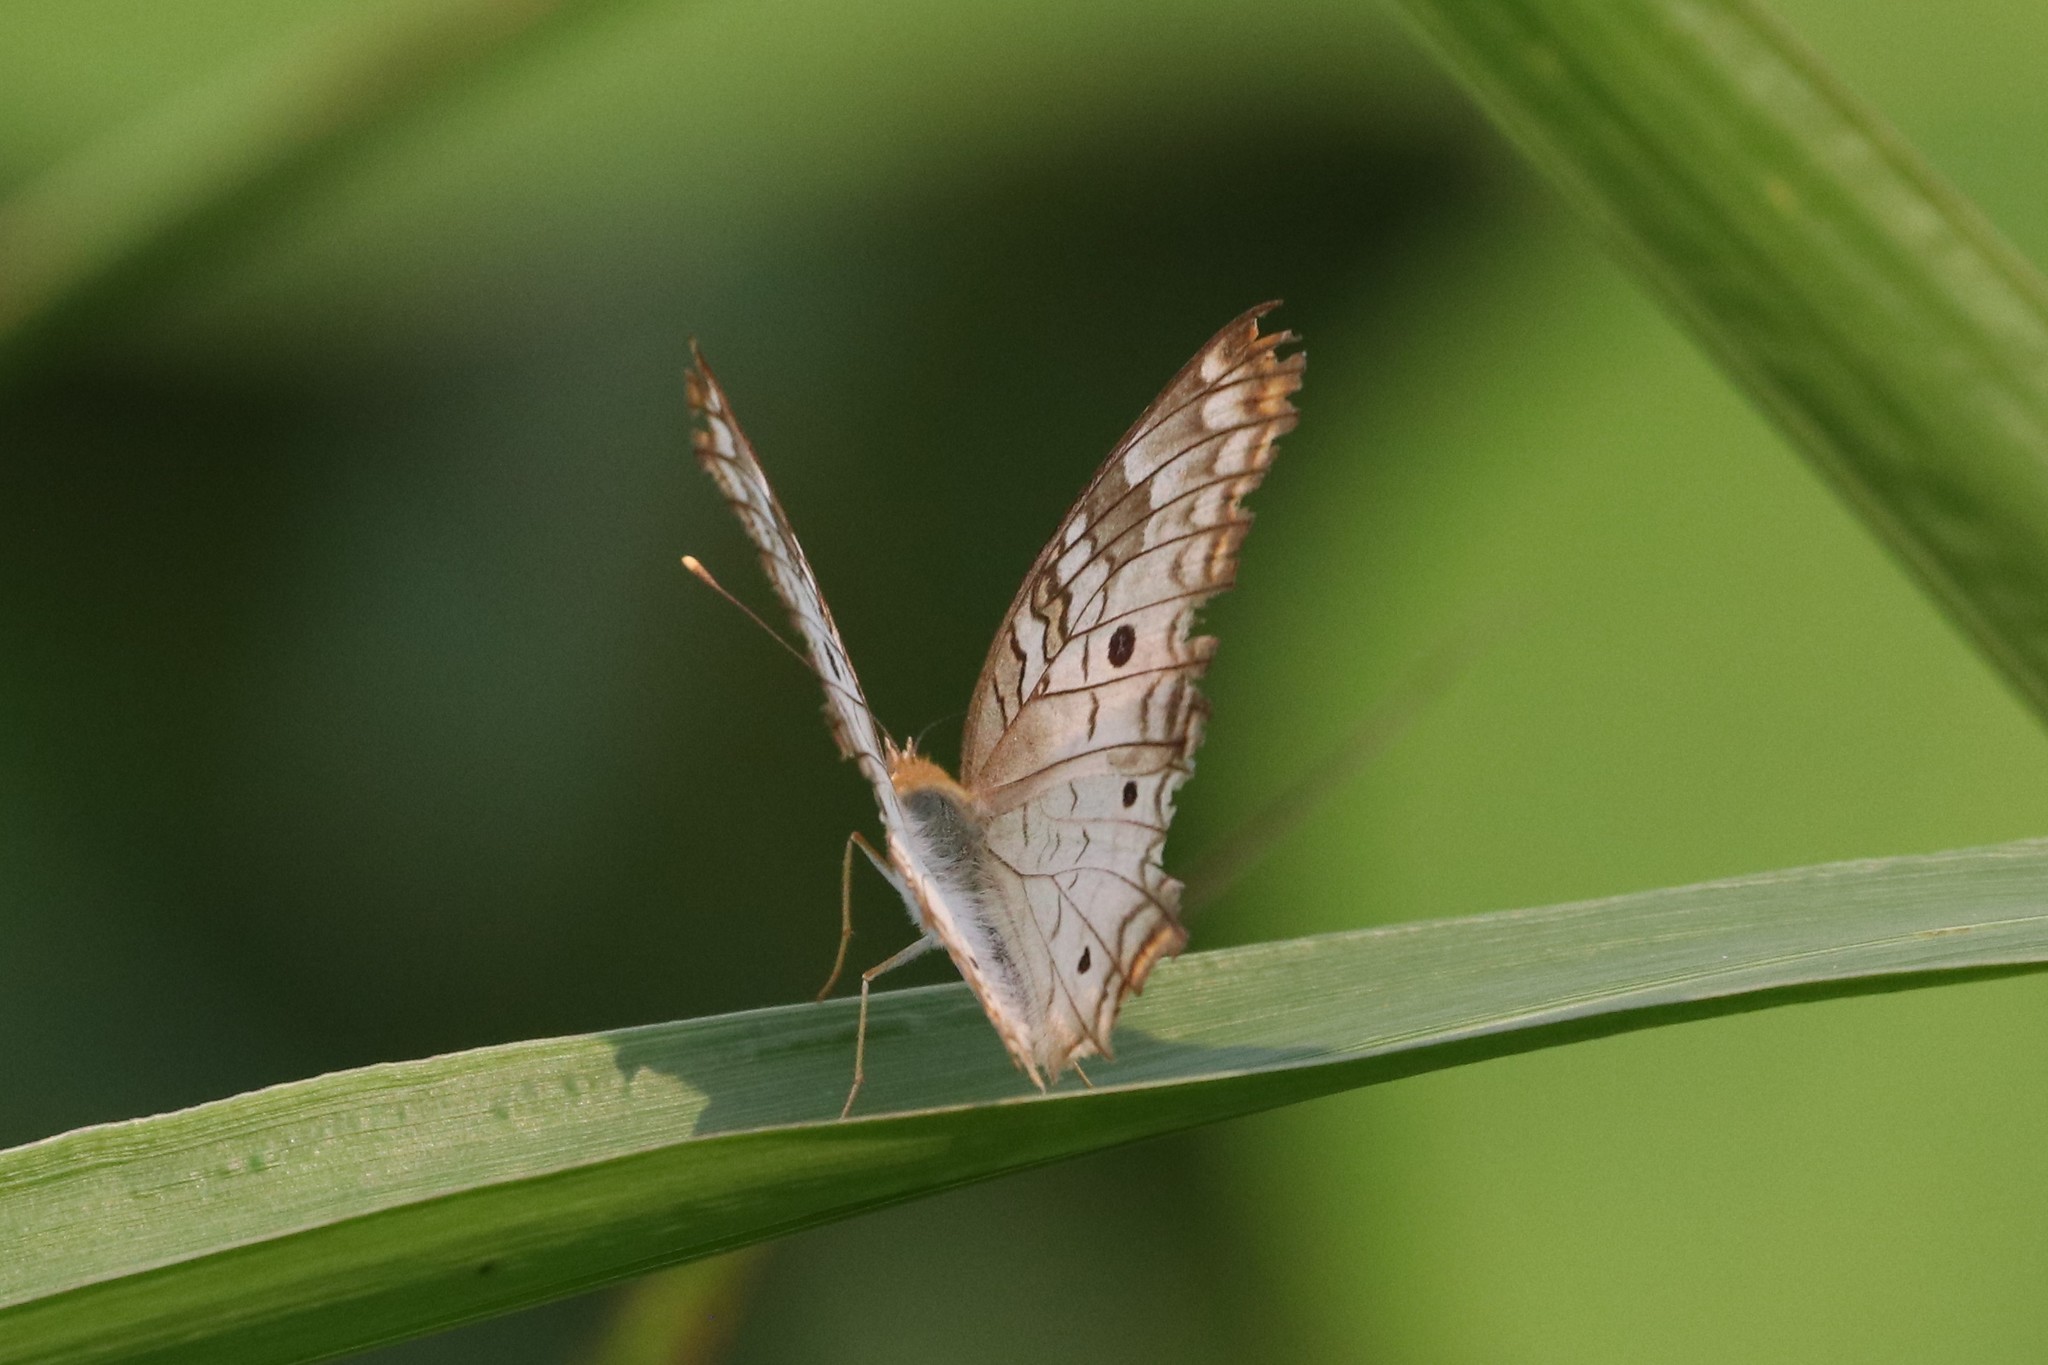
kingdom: Animalia
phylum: Arthropoda
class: Insecta
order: Lepidoptera
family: Nymphalidae
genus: Anartia
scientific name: Anartia jatrophae
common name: White peacock
